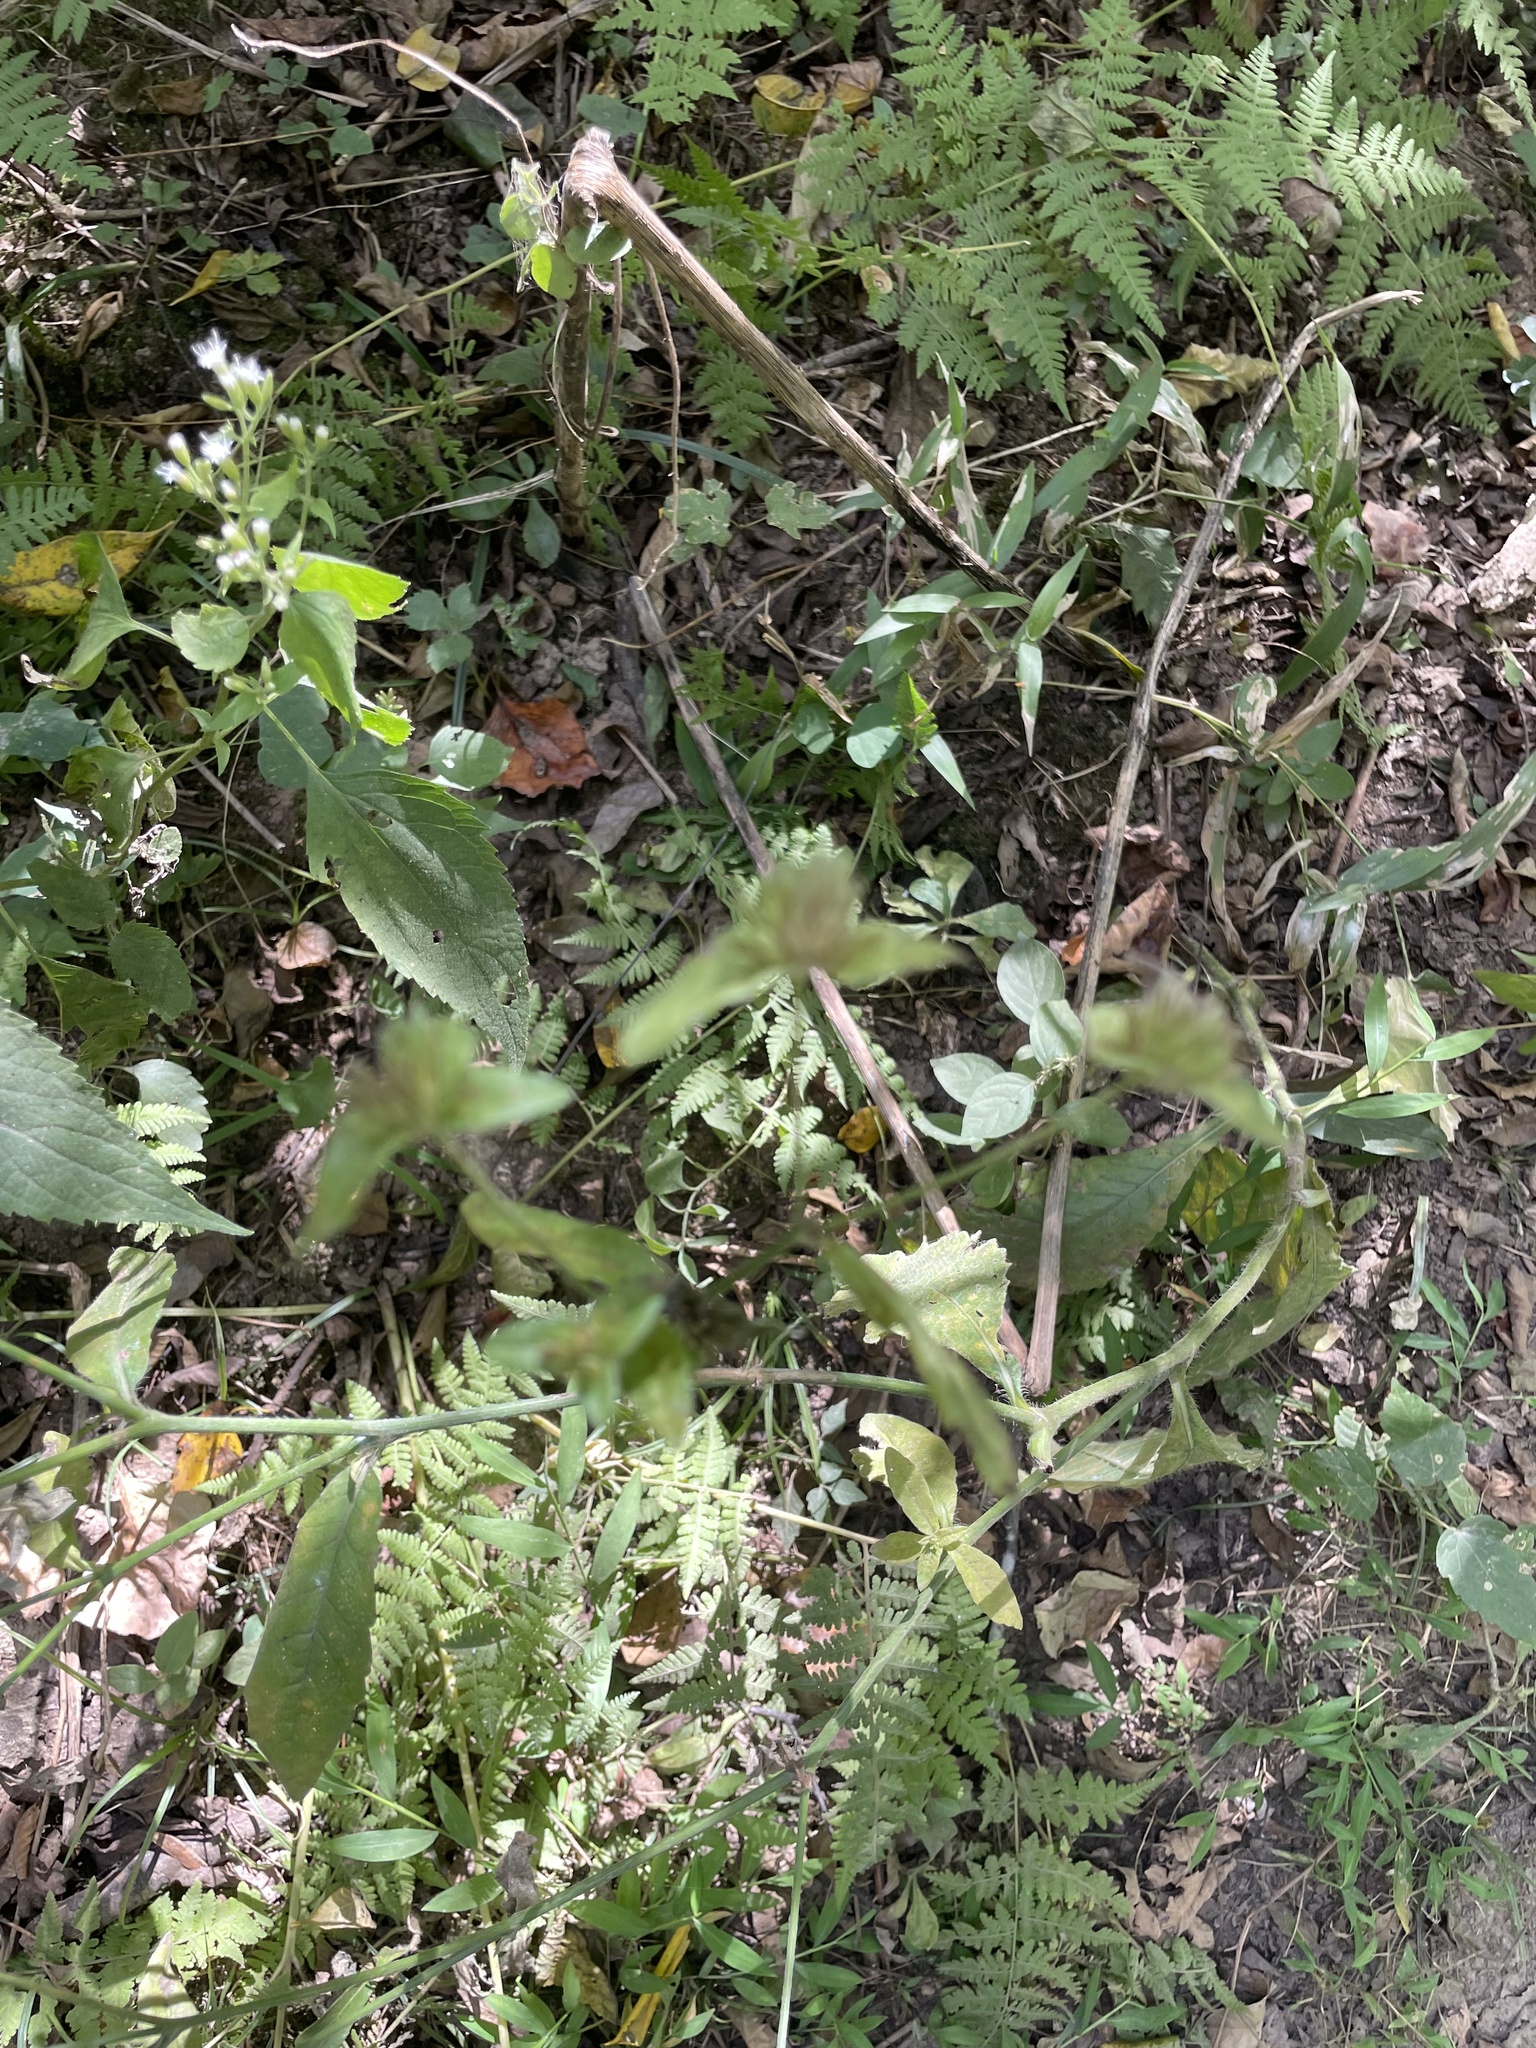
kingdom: Plantae
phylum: Tracheophyta
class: Magnoliopsida
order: Asterales
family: Asteraceae
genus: Elephantopus
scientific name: Elephantopus carolinianus
